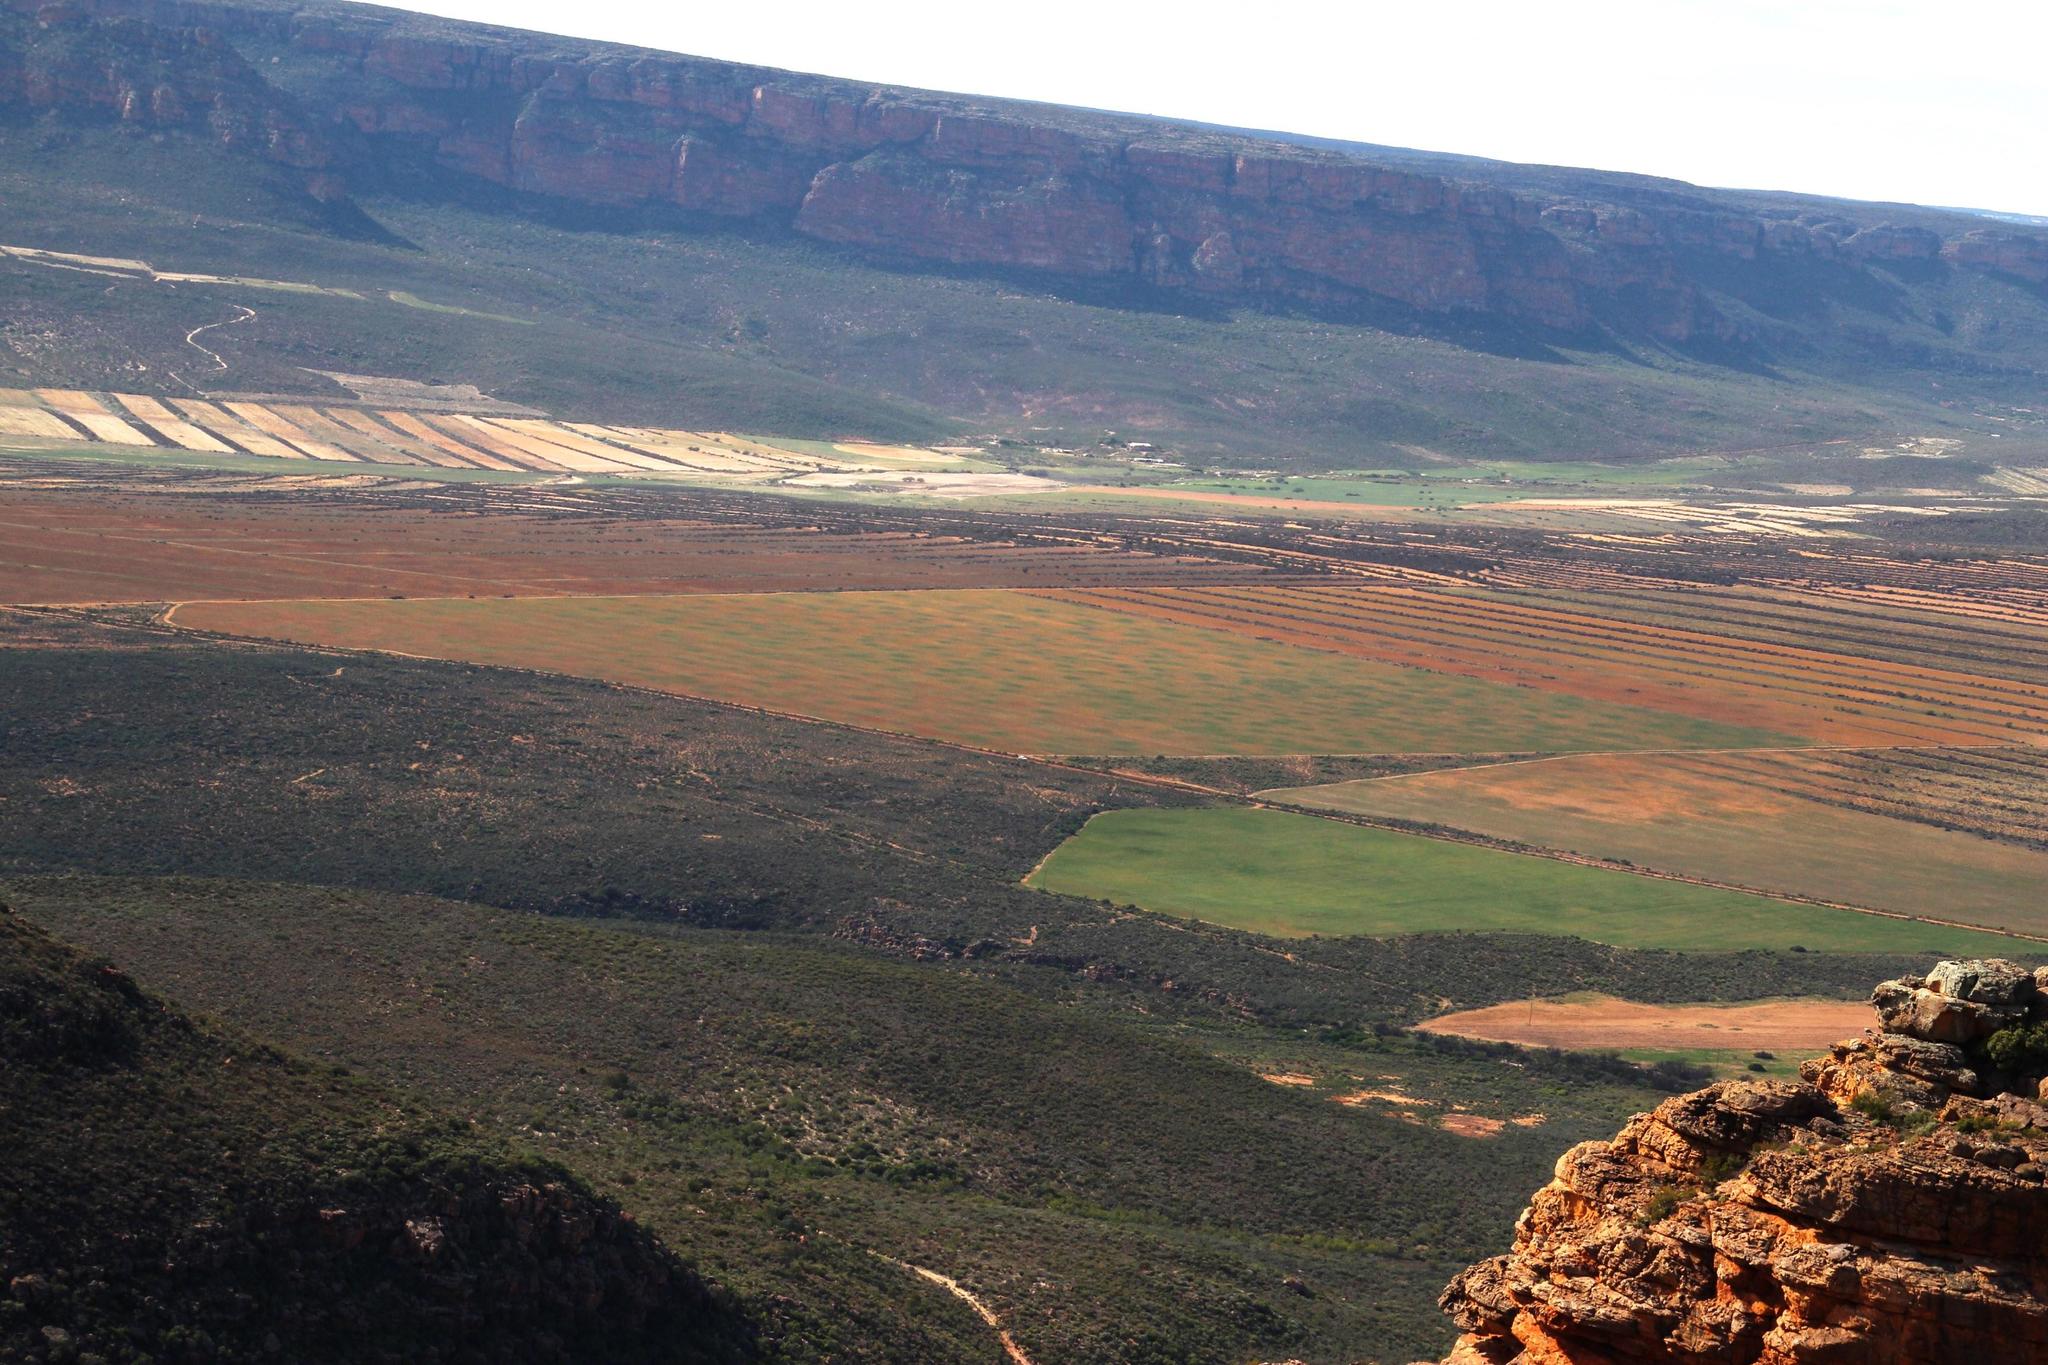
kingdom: Animalia
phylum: Arthropoda
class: Insecta
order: Blattodea
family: Hodotermitidae
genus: Microhodotermes
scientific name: Microhodotermes viator
